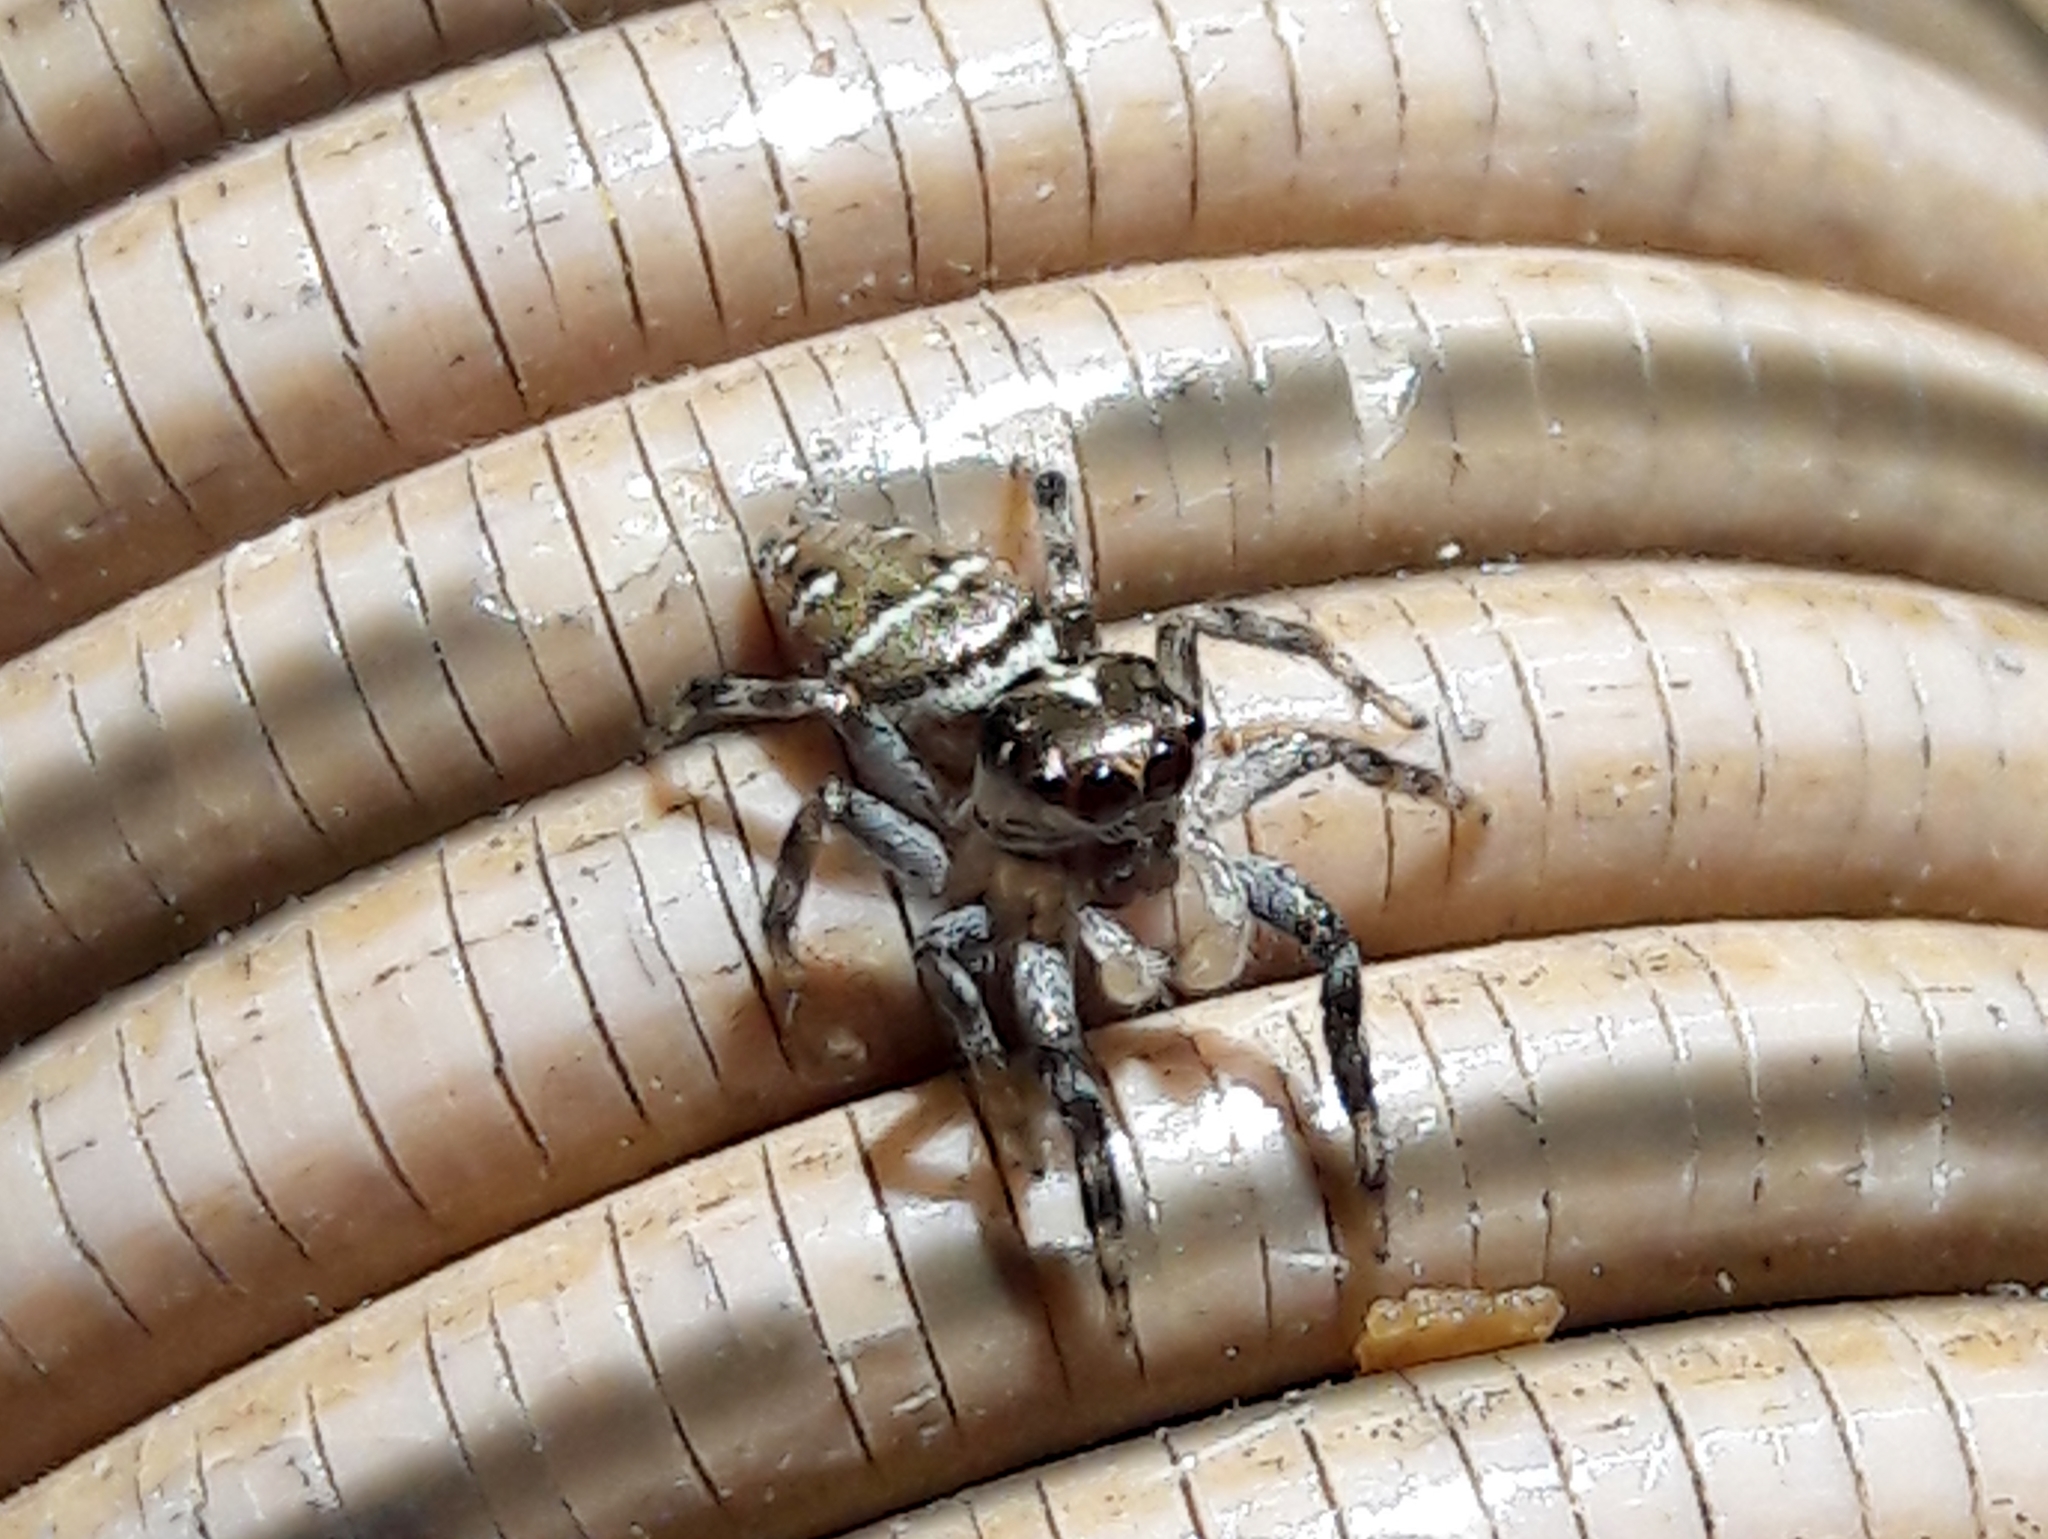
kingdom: Animalia
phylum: Arthropoda
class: Arachnida
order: Araneae
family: Salticidae
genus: Philira
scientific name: Philira micans
